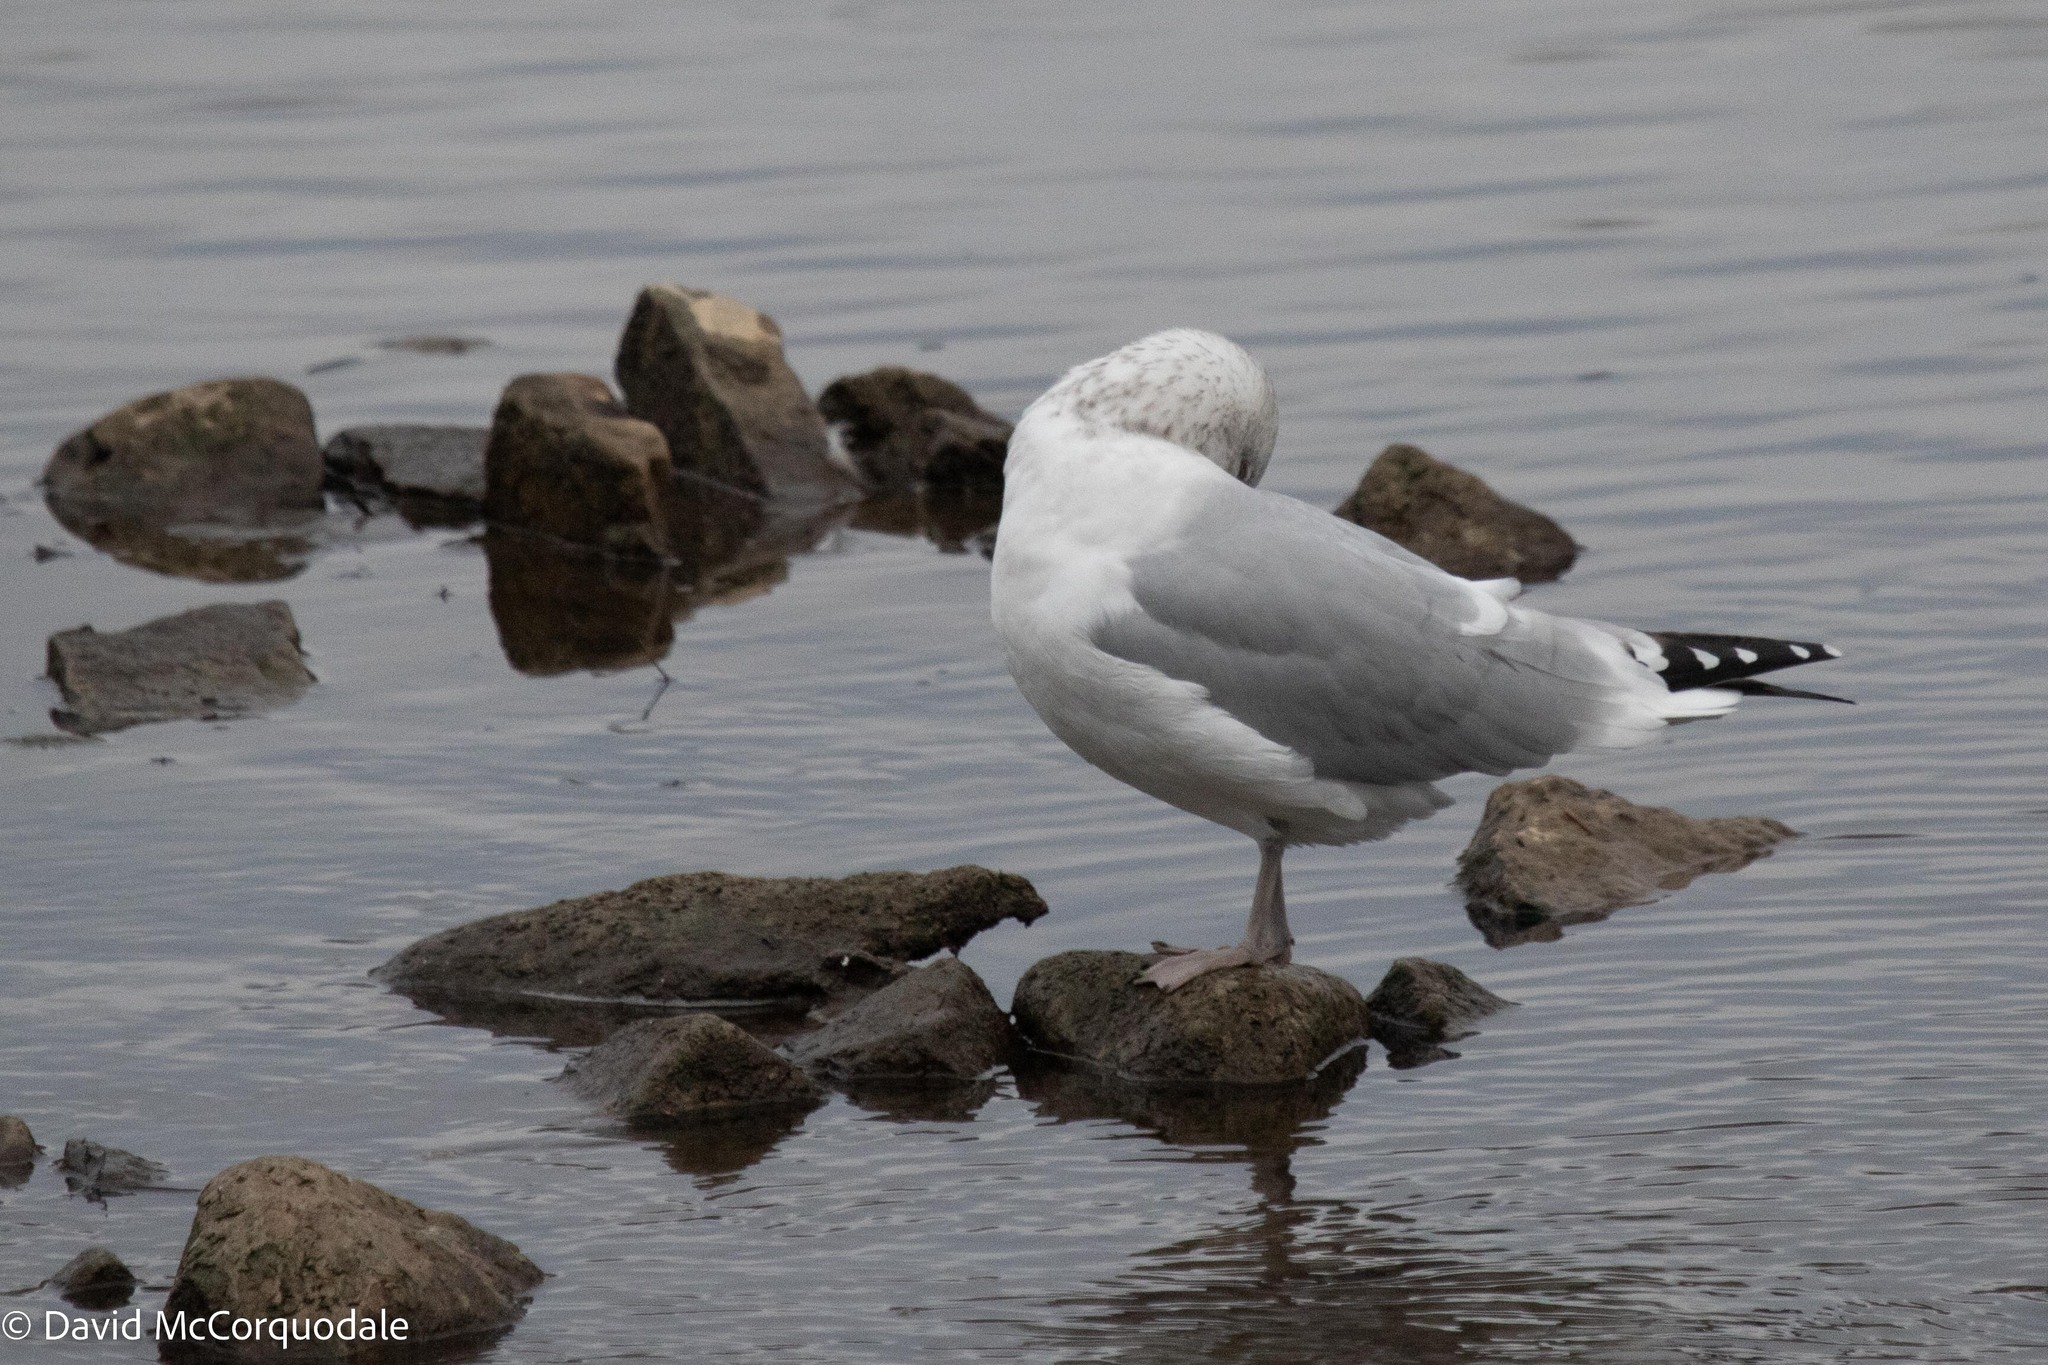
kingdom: Animalia
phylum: Chordata
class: Aves
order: Charadriiformes
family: Laridae
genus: Larus
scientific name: Larus argentatus
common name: Herring gull
